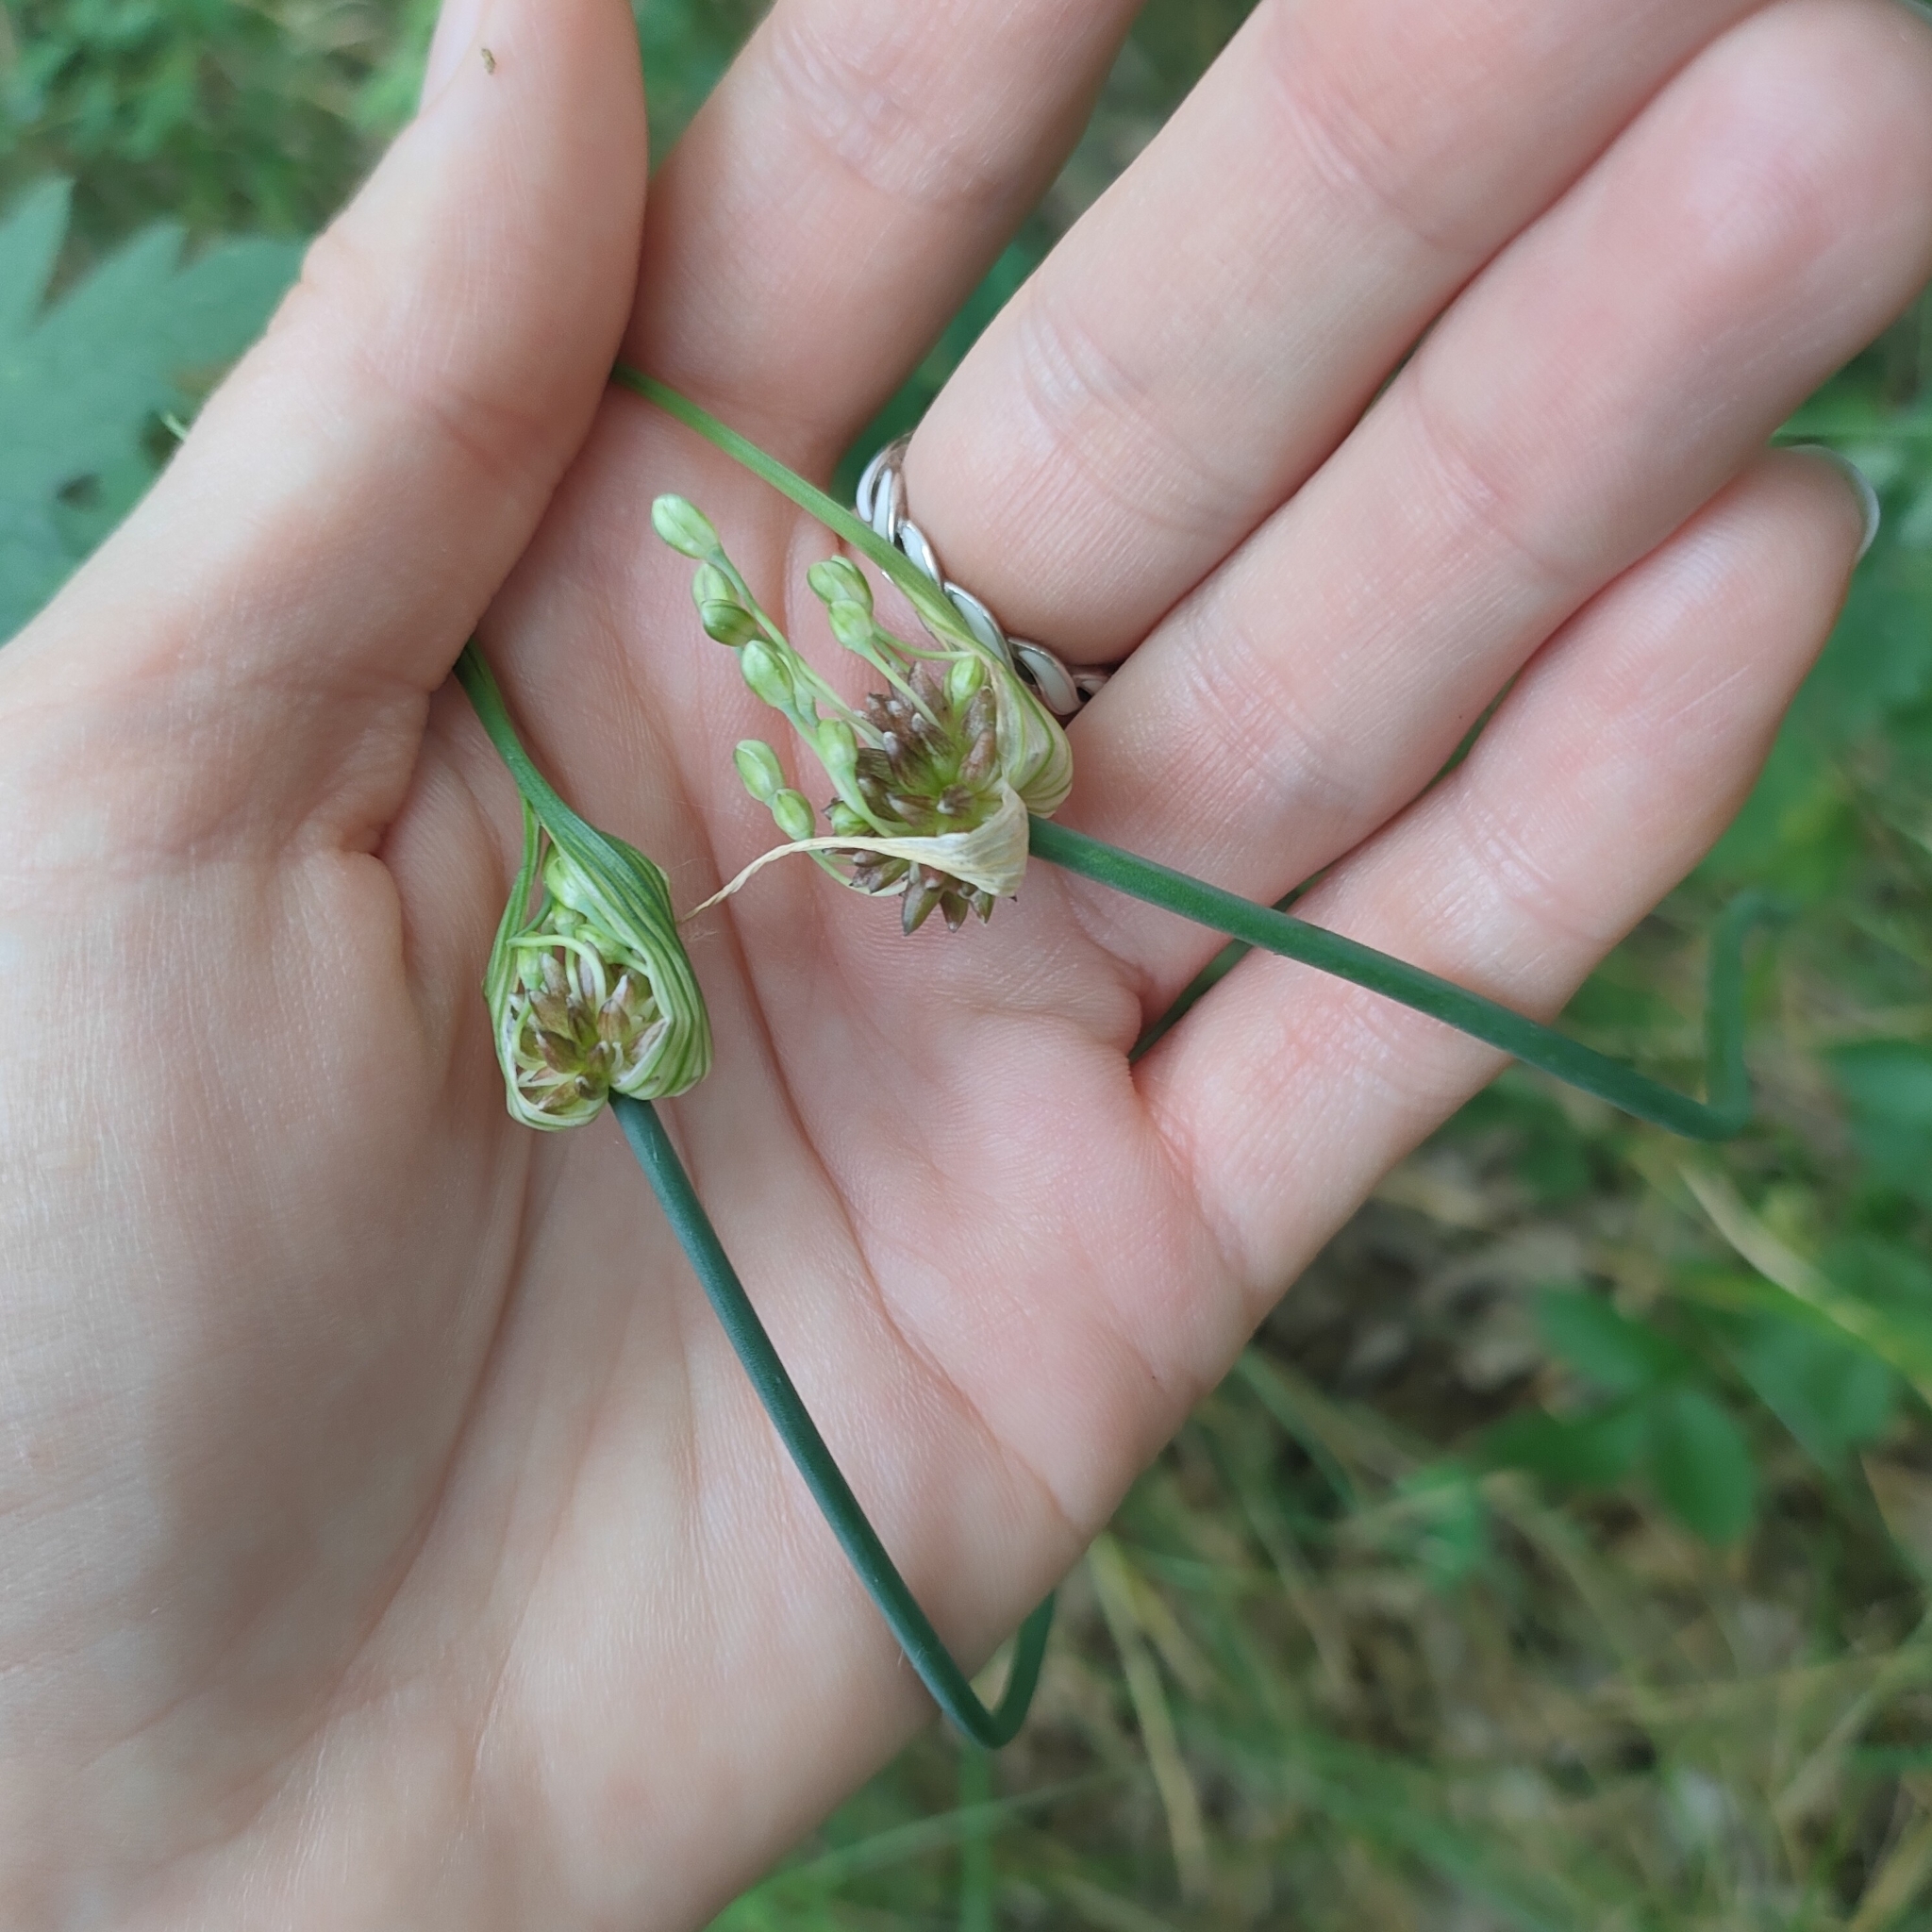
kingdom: Plantae
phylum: Tracheophyta
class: Liliopsida
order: Asparagales
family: Amaryllidaceae
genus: Allium
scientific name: Allium oleraceum
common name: Field garlic
